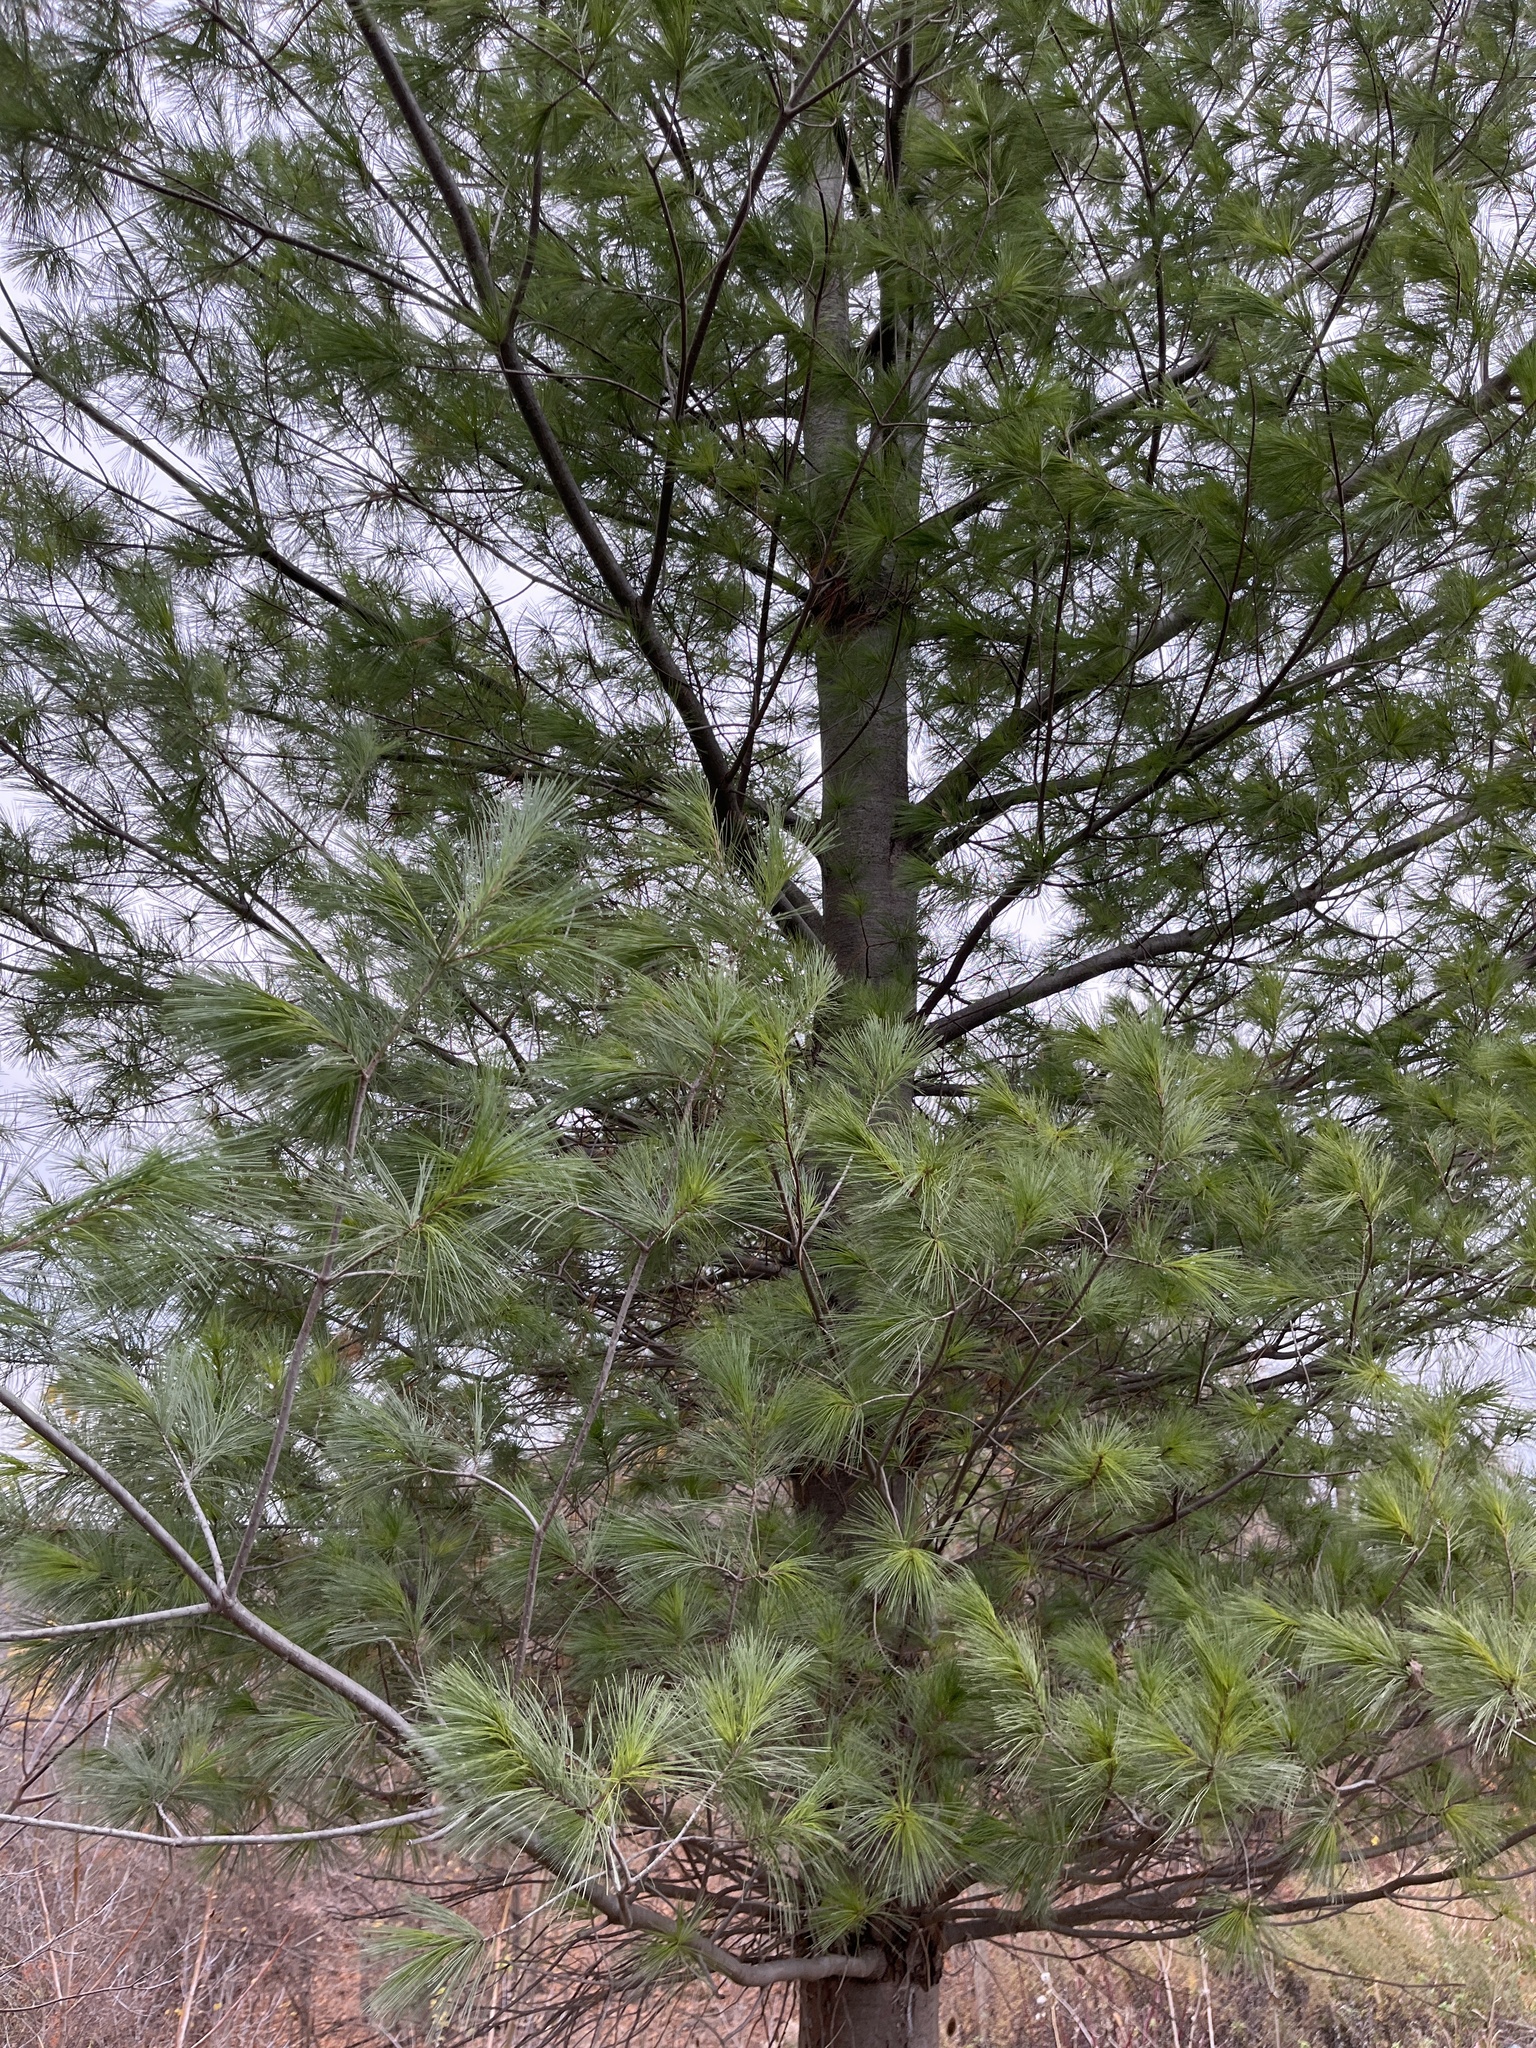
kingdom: Plantae
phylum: Tracheophyta
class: Pinopsida
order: Pinales
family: Pinaceae
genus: Pinus
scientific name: Pinus strobus
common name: Weymouth pine
